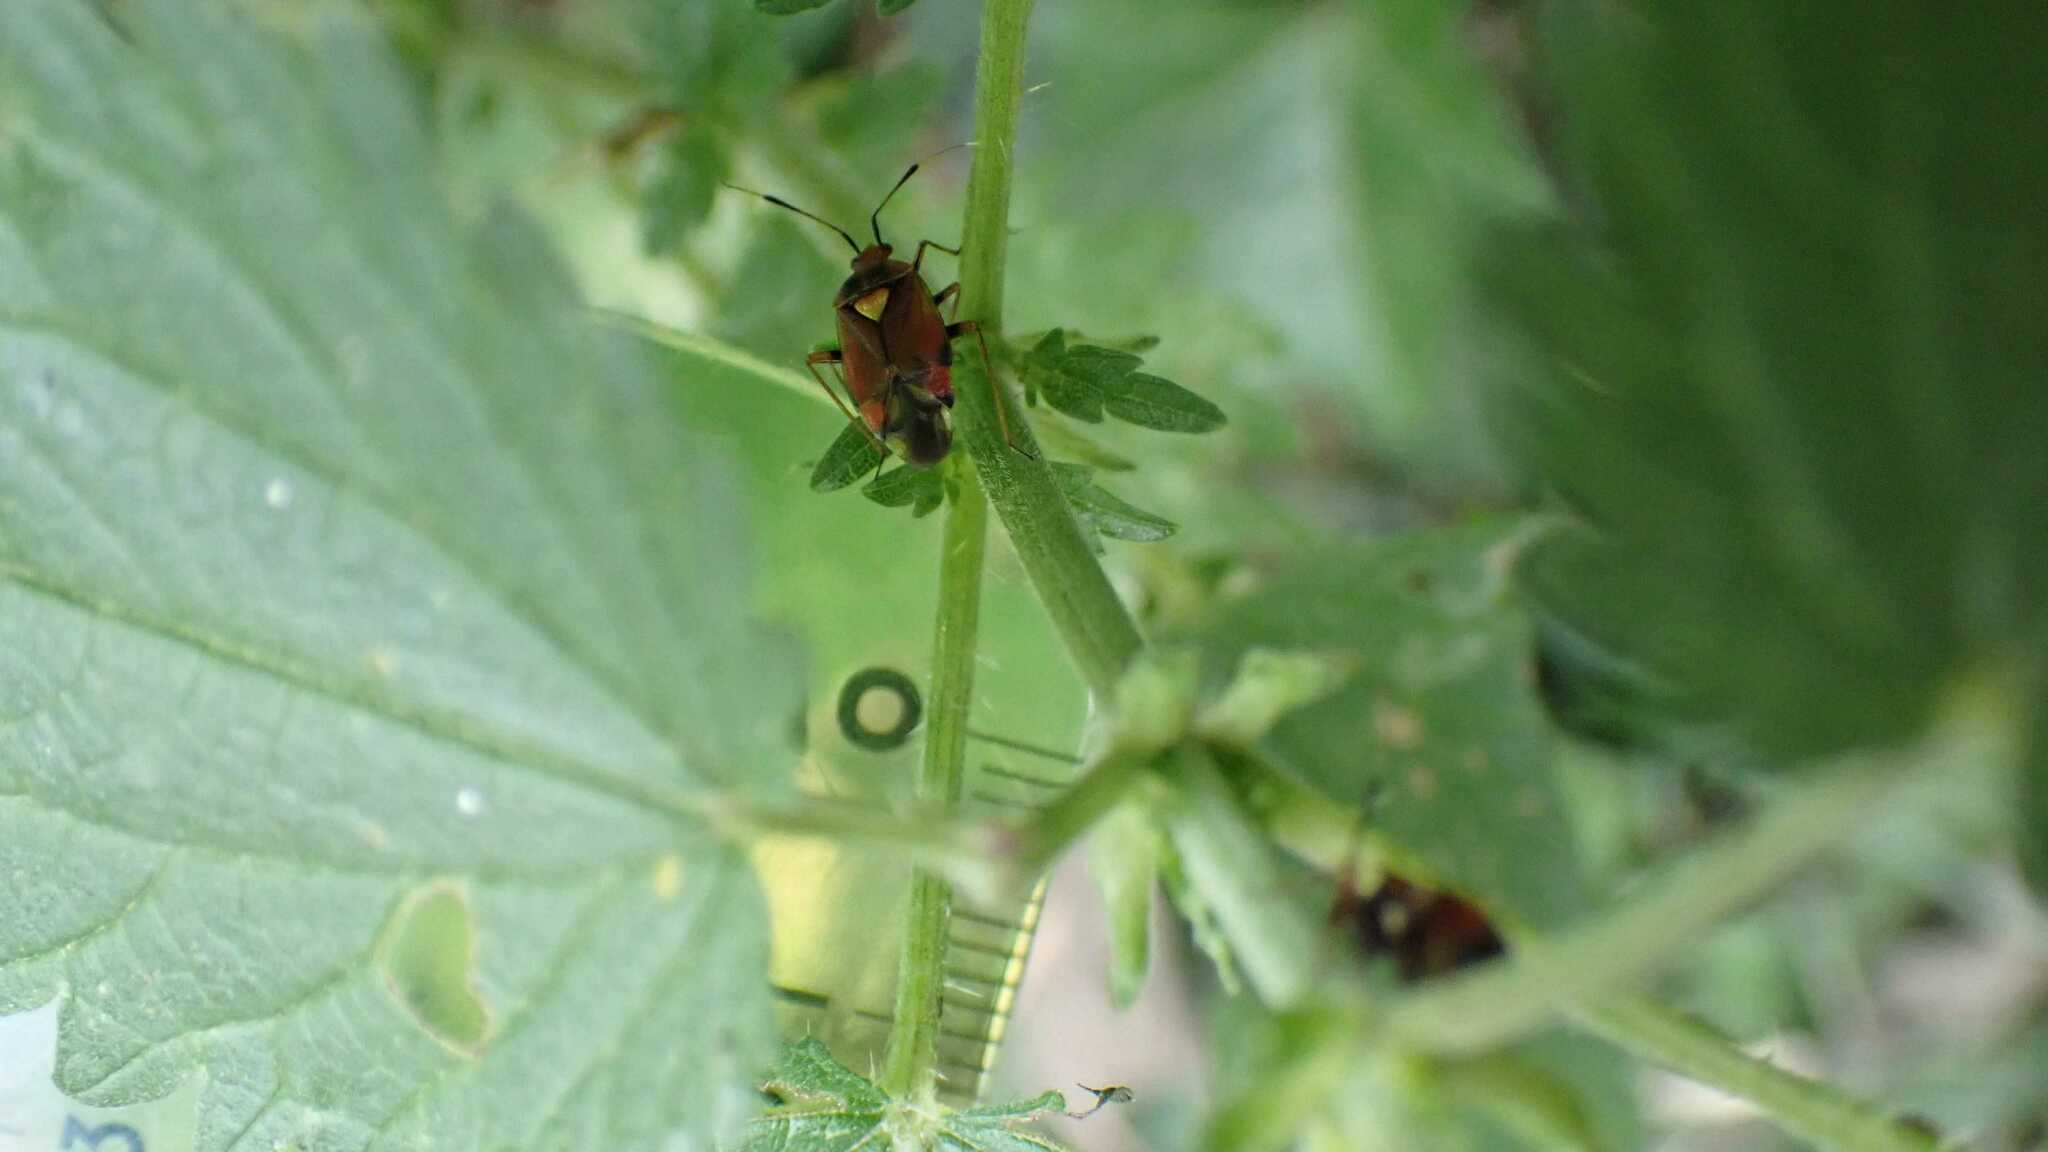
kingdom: Animalia
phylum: Arthropoda
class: Insecta
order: Hemiptera
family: Miridae
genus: Deraeocoris
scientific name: Deraeocoris ruber
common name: Plant bug
